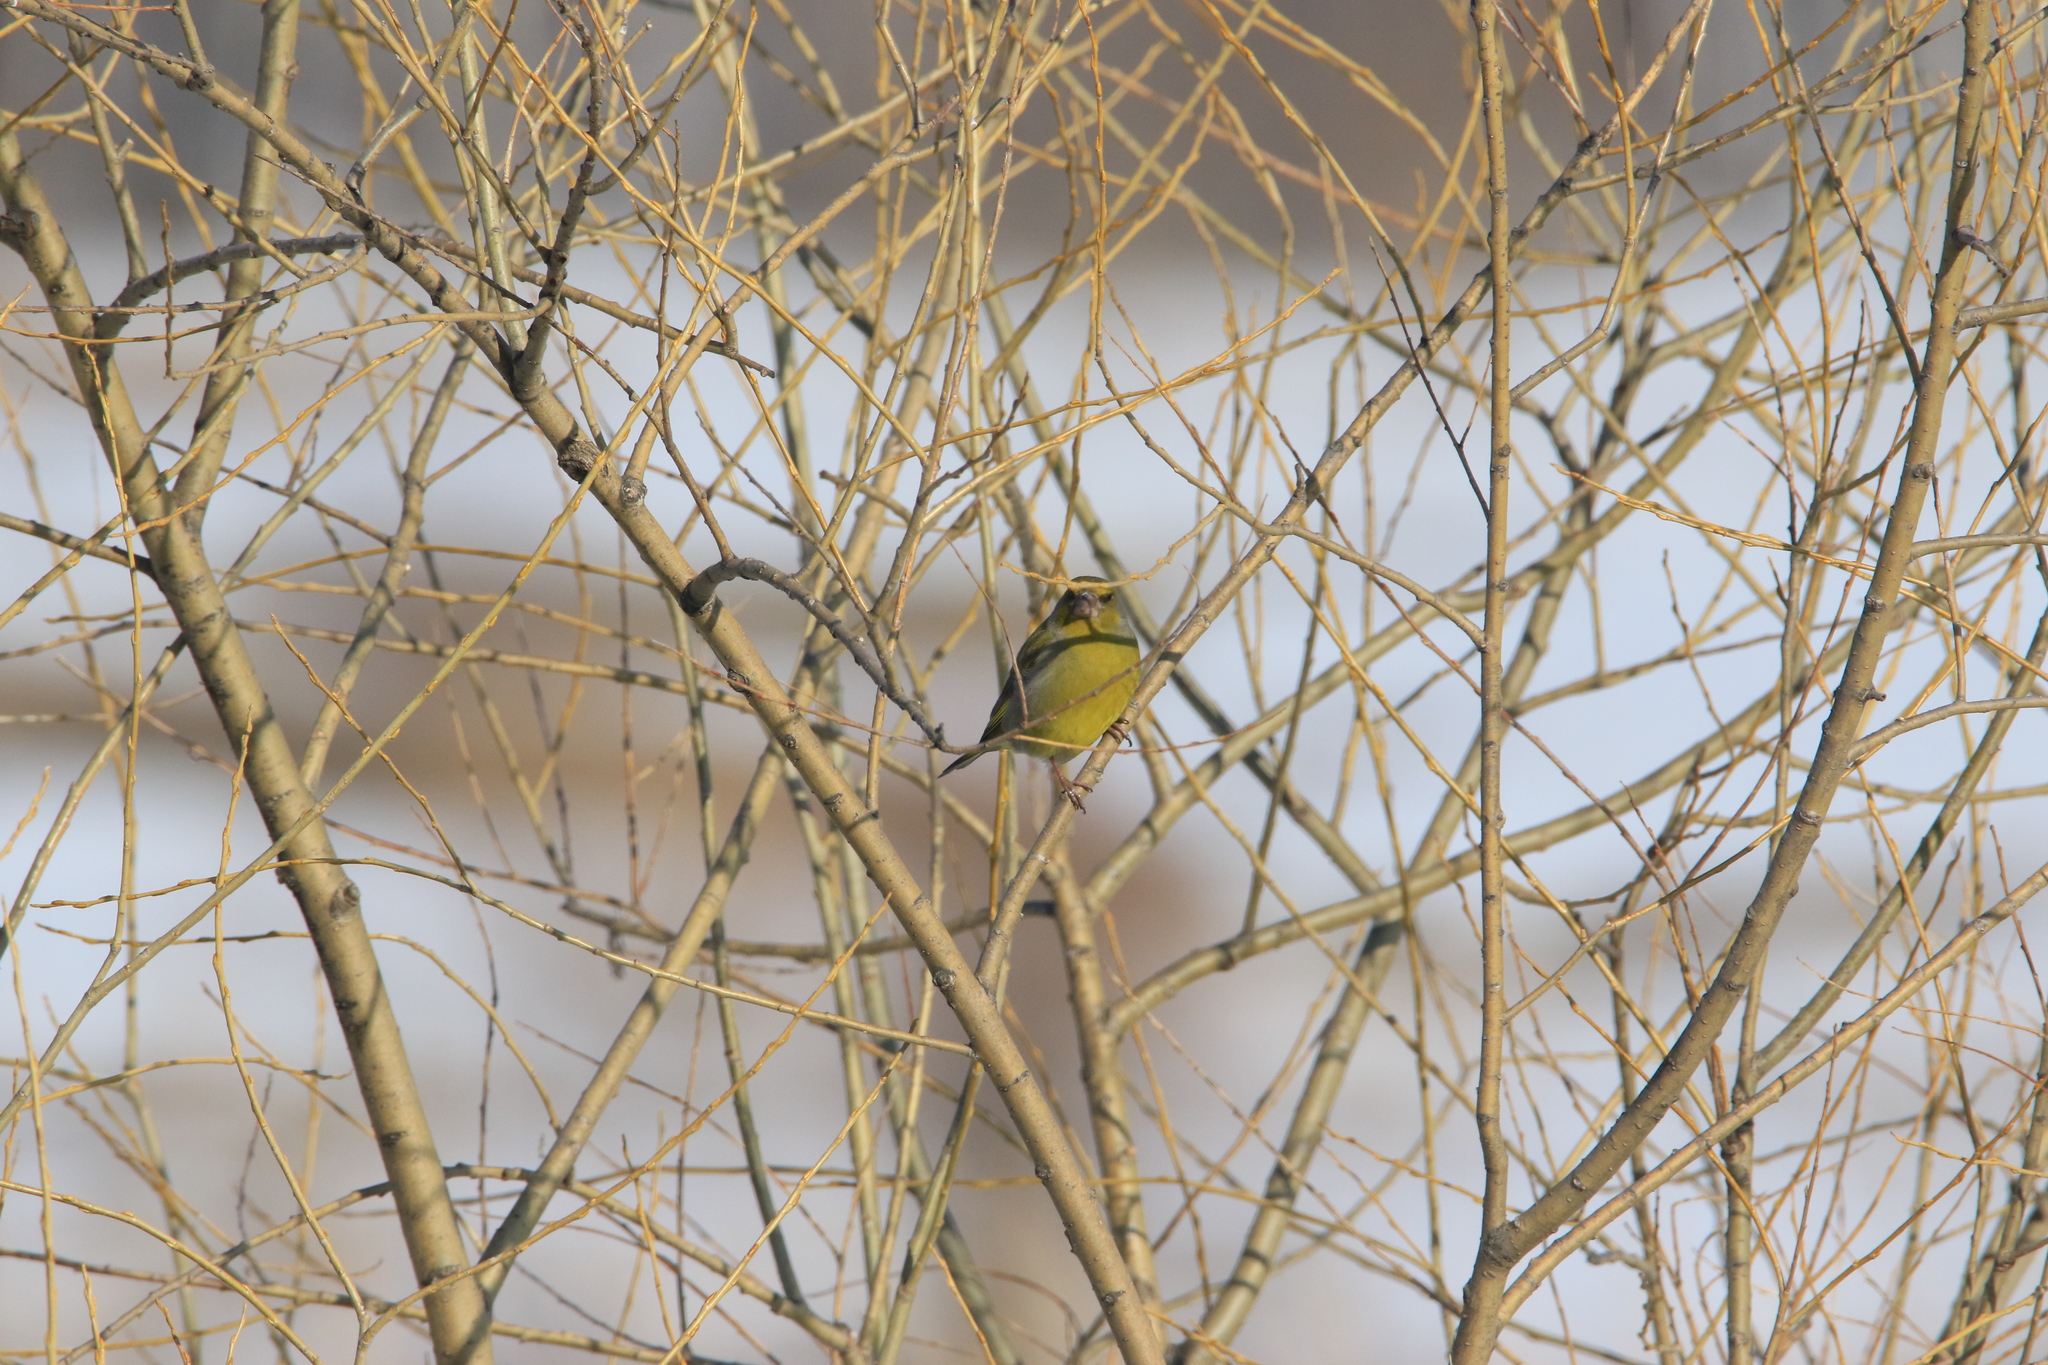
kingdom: Plantae
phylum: Tracheophyta
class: Liliopsida
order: Poales
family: Poaceae
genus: Chloris
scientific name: Chloris chloris
